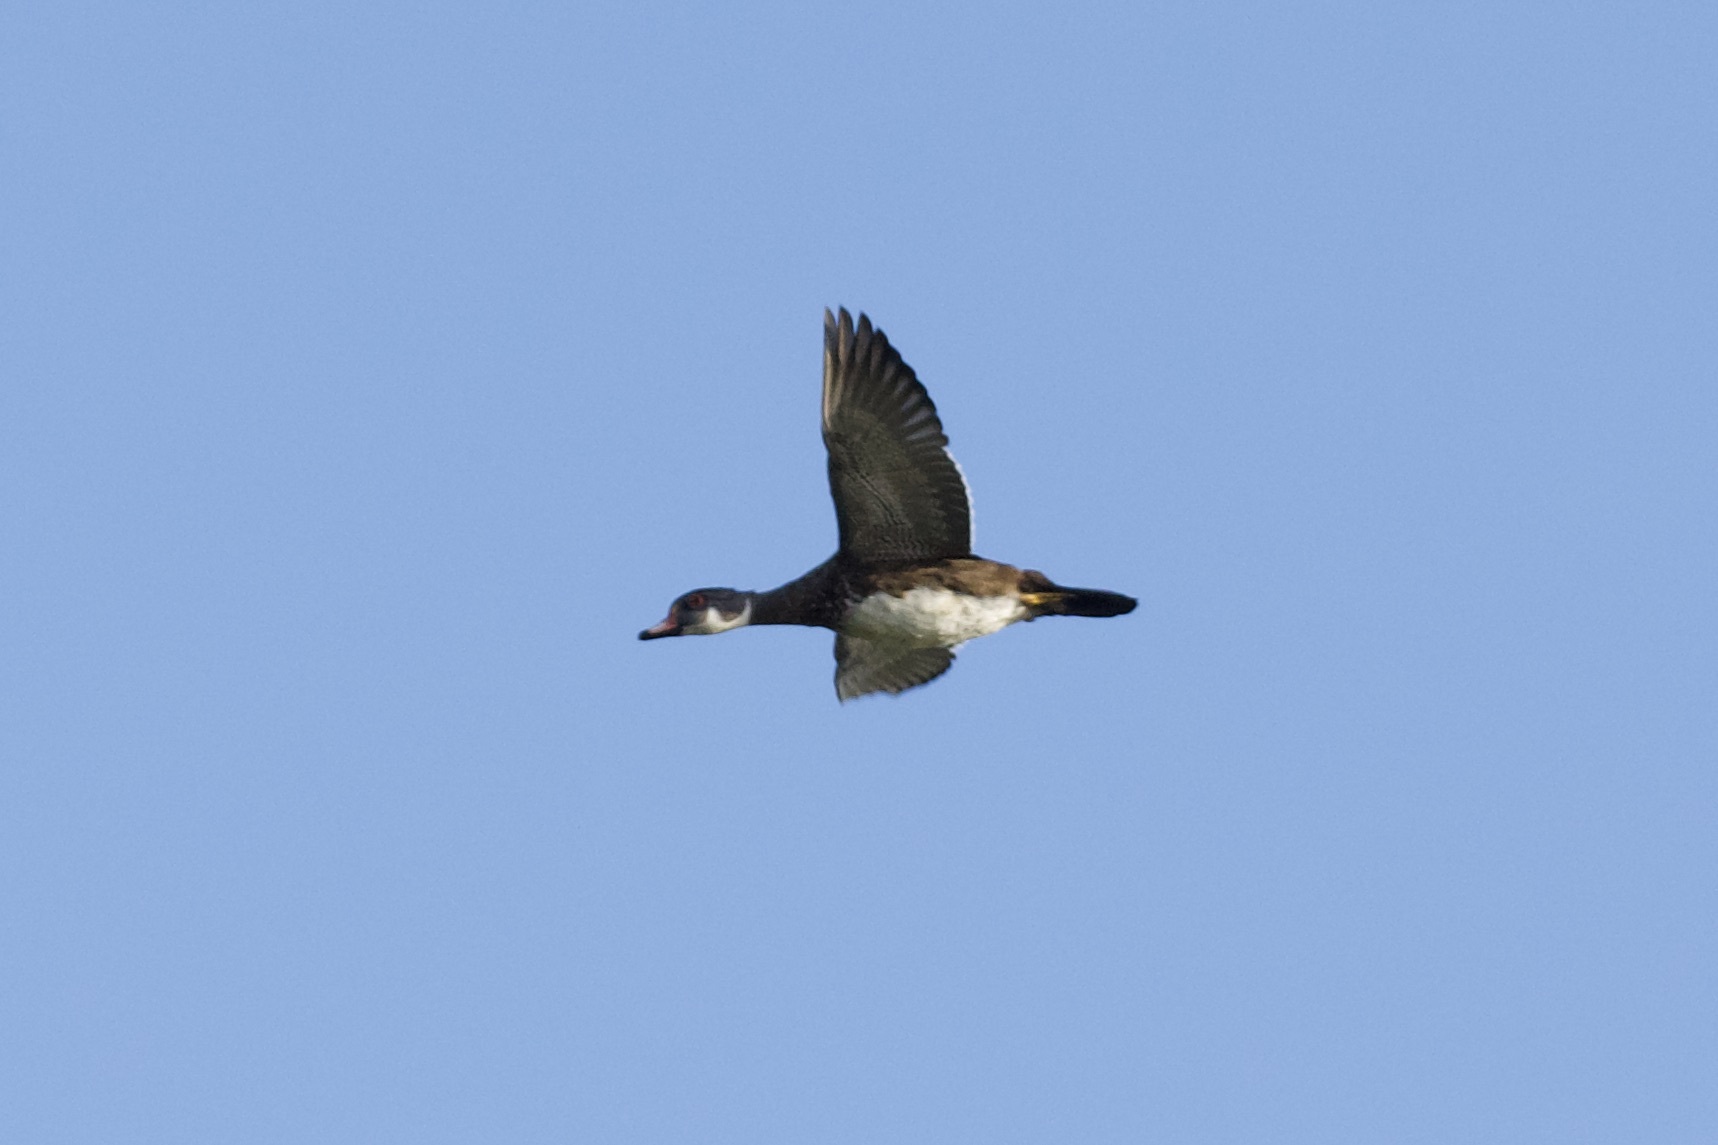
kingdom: Animalia
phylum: Chordata
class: Aves
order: Anseriformes
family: Anatidae
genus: Aix
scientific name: Aix sponsa
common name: Wood duck
